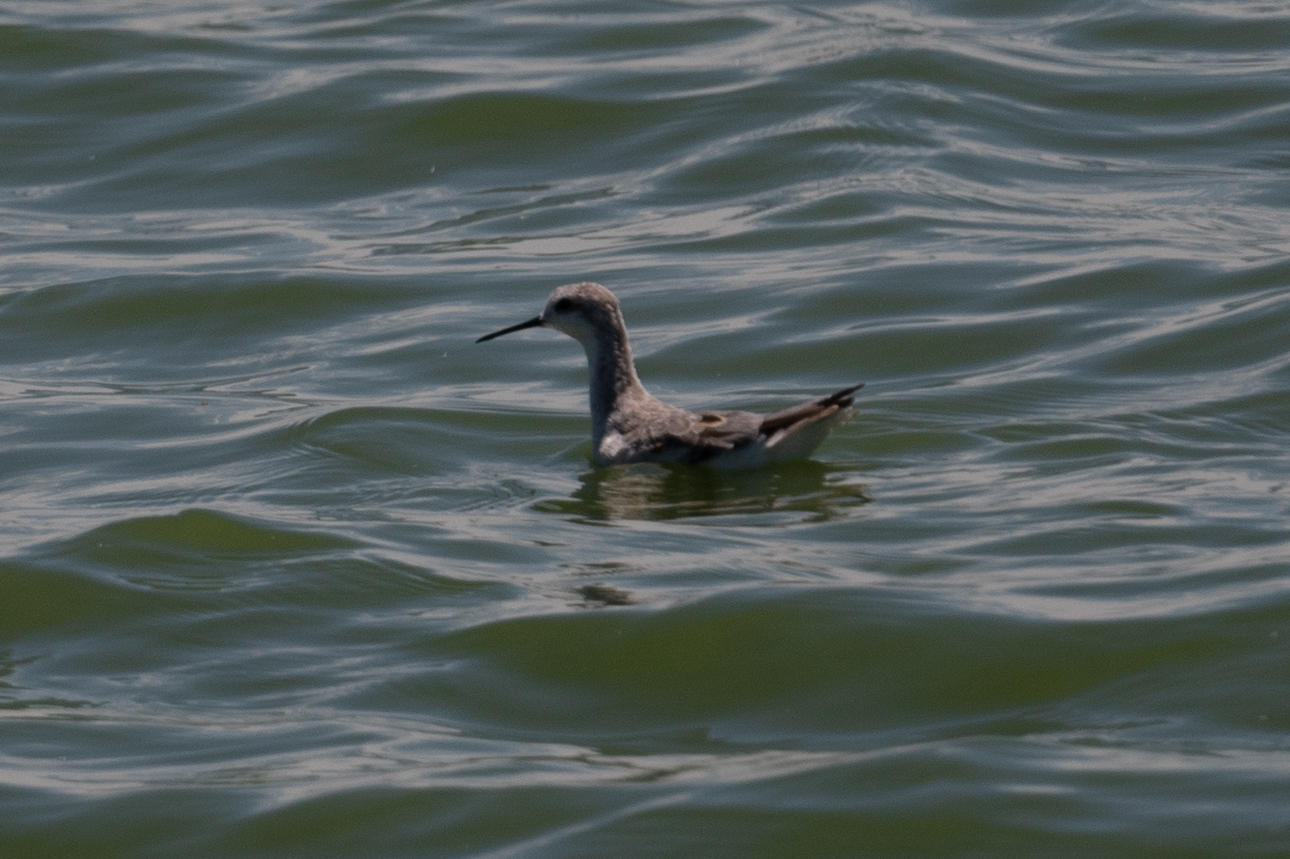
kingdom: Animalia
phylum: Chordata
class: Aves
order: Charadriiformes
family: Scolopacidae
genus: Phalaropus
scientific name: Phalaropus tricolor
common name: Wilson's phalarope
